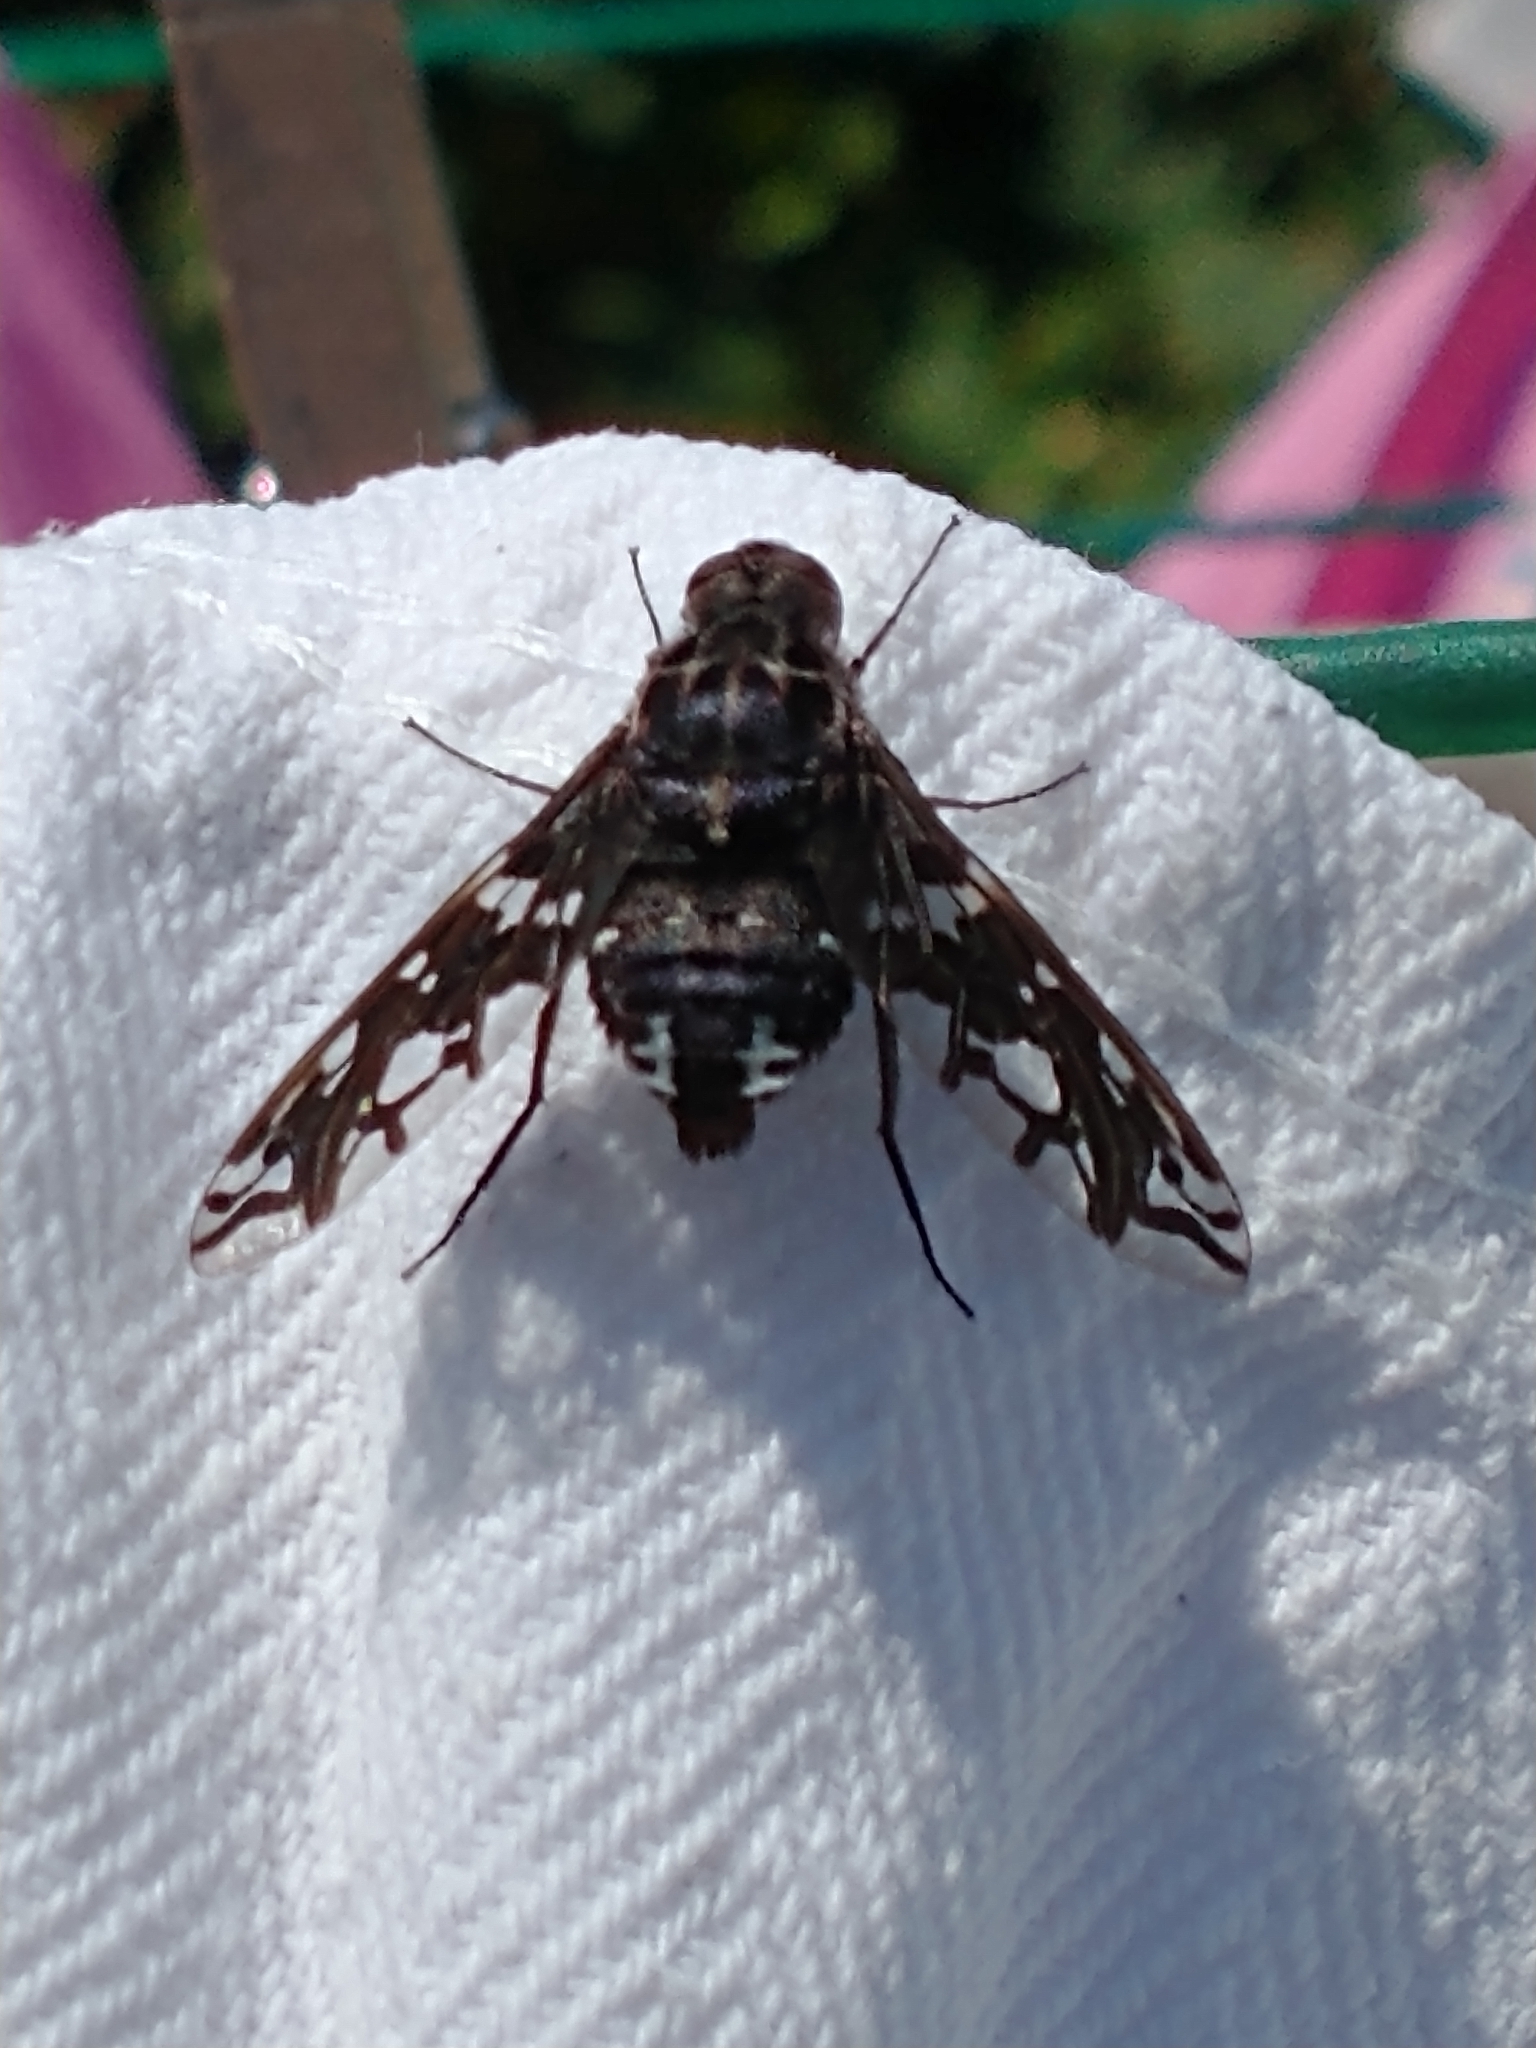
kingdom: Animalia
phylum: Arthropoda
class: Insecta
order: Diptera
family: Bombyliidae
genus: Xenox
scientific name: Xenox tigrinus
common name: Tiger bee fly
